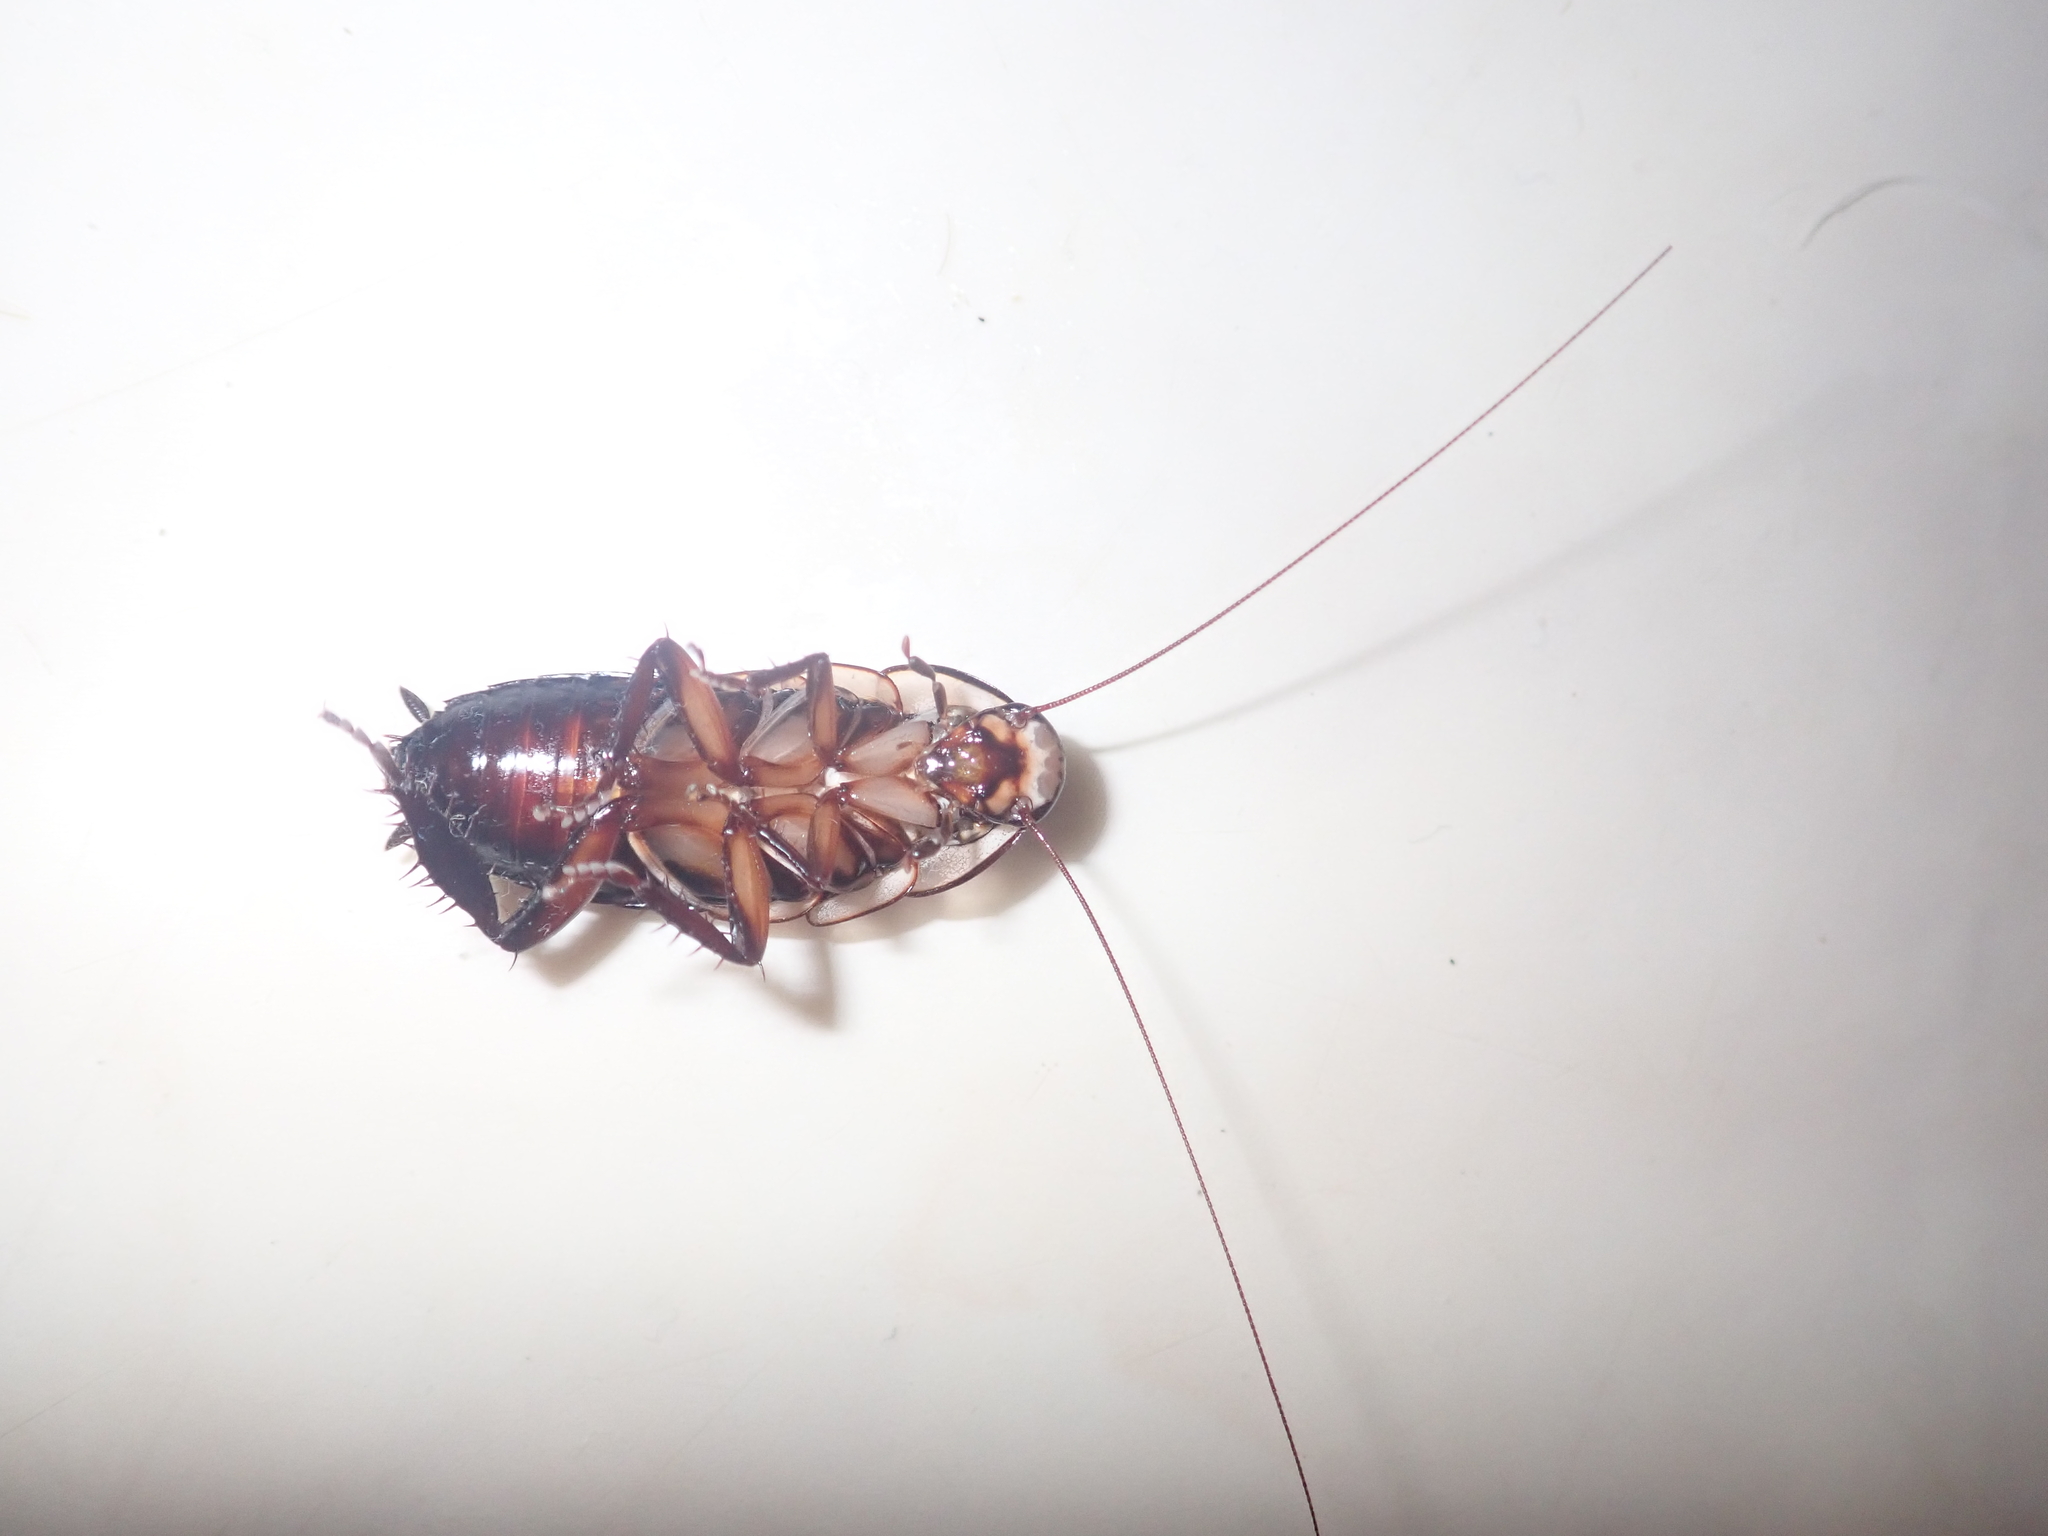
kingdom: Animalia
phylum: Arthropoda
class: Insecta
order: Blattodea
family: Blattidae
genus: Drymaplaneta
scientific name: Drymaplaneta semivitta
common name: Gisborne cockroach
